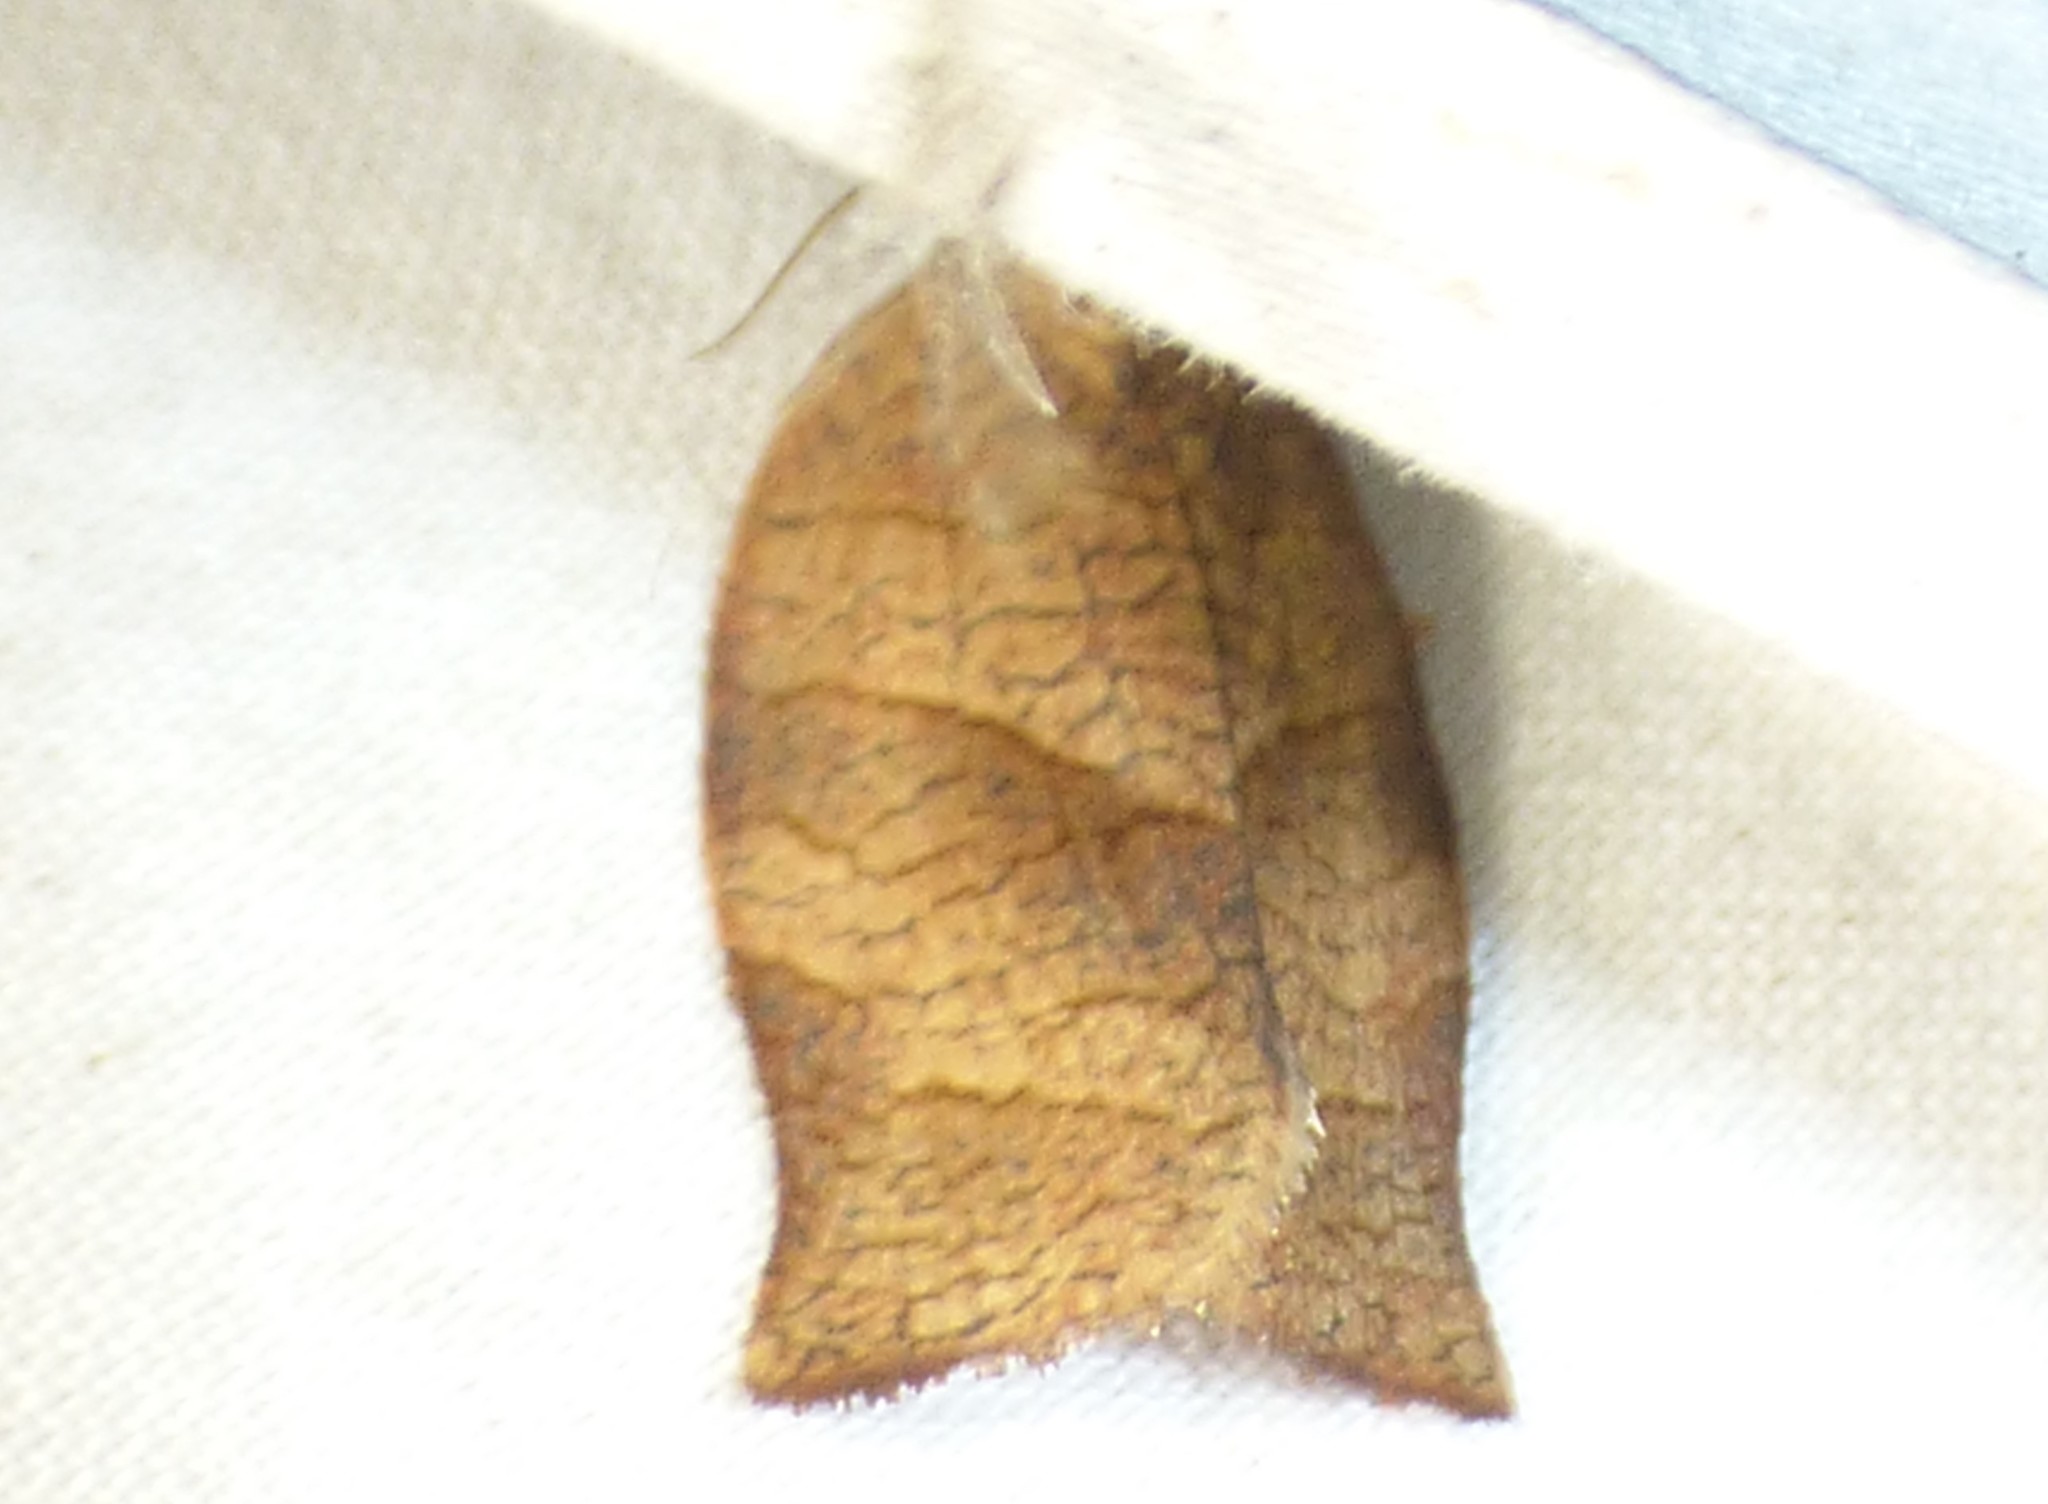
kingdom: Animalia
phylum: Arthropoda
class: Insecta
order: Lepidoptera
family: Tortricidae
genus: Choristoneura
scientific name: Choristoneura rosaceana
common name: Oblique-banded leafroller moth
